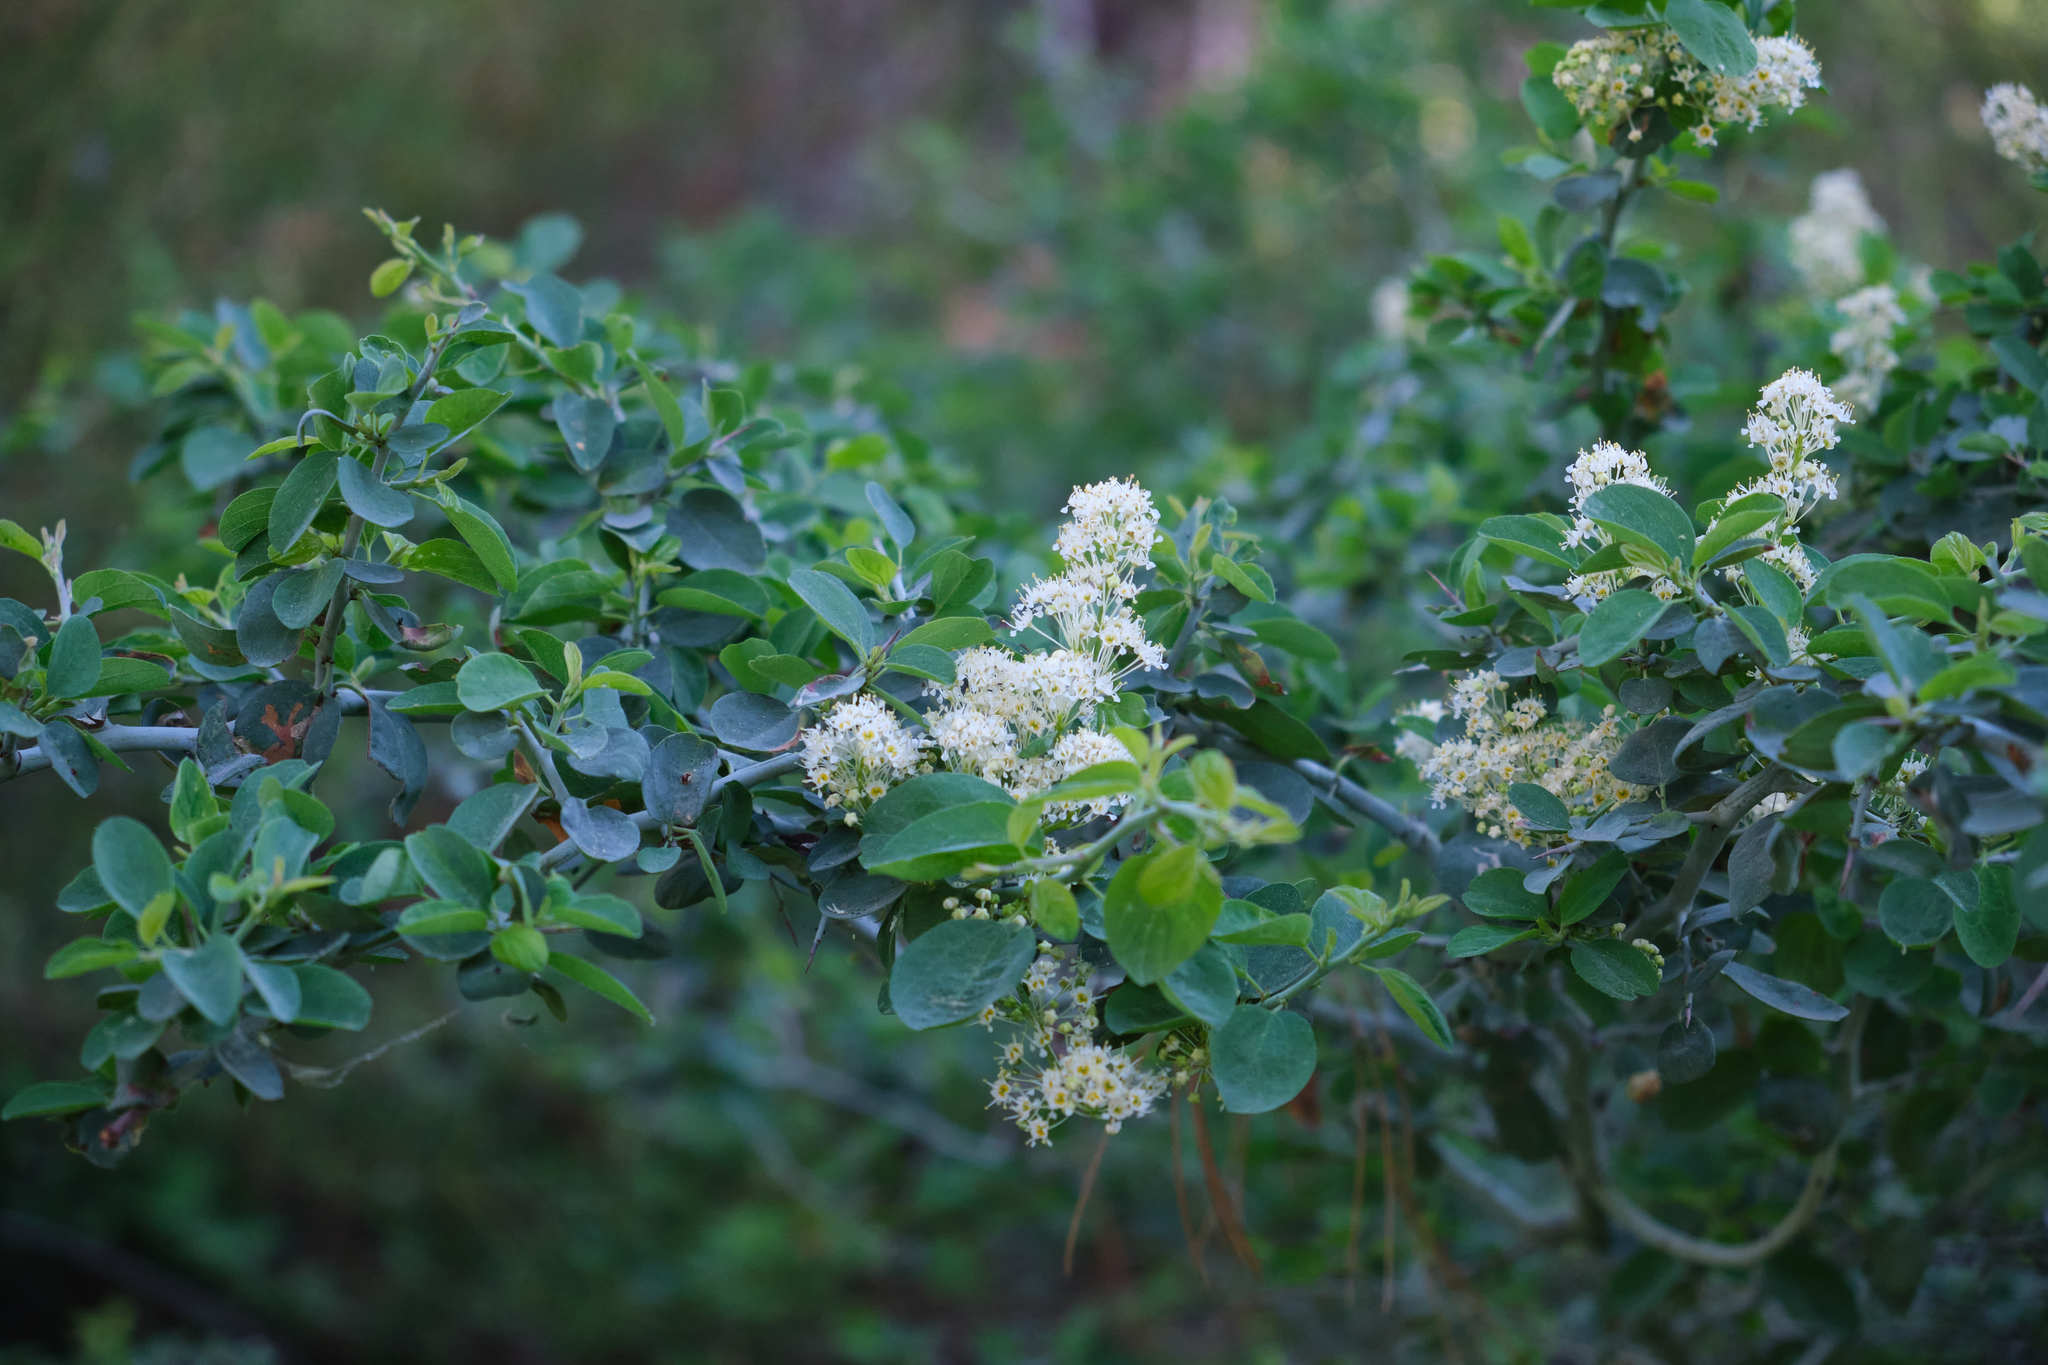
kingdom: Plantae
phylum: Tracheophyta
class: Magnoliopsida
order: Rosales
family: Rhamnaceae
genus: Ceanothus
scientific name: Ceanothus cordulatus
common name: Mountain whitethorn
